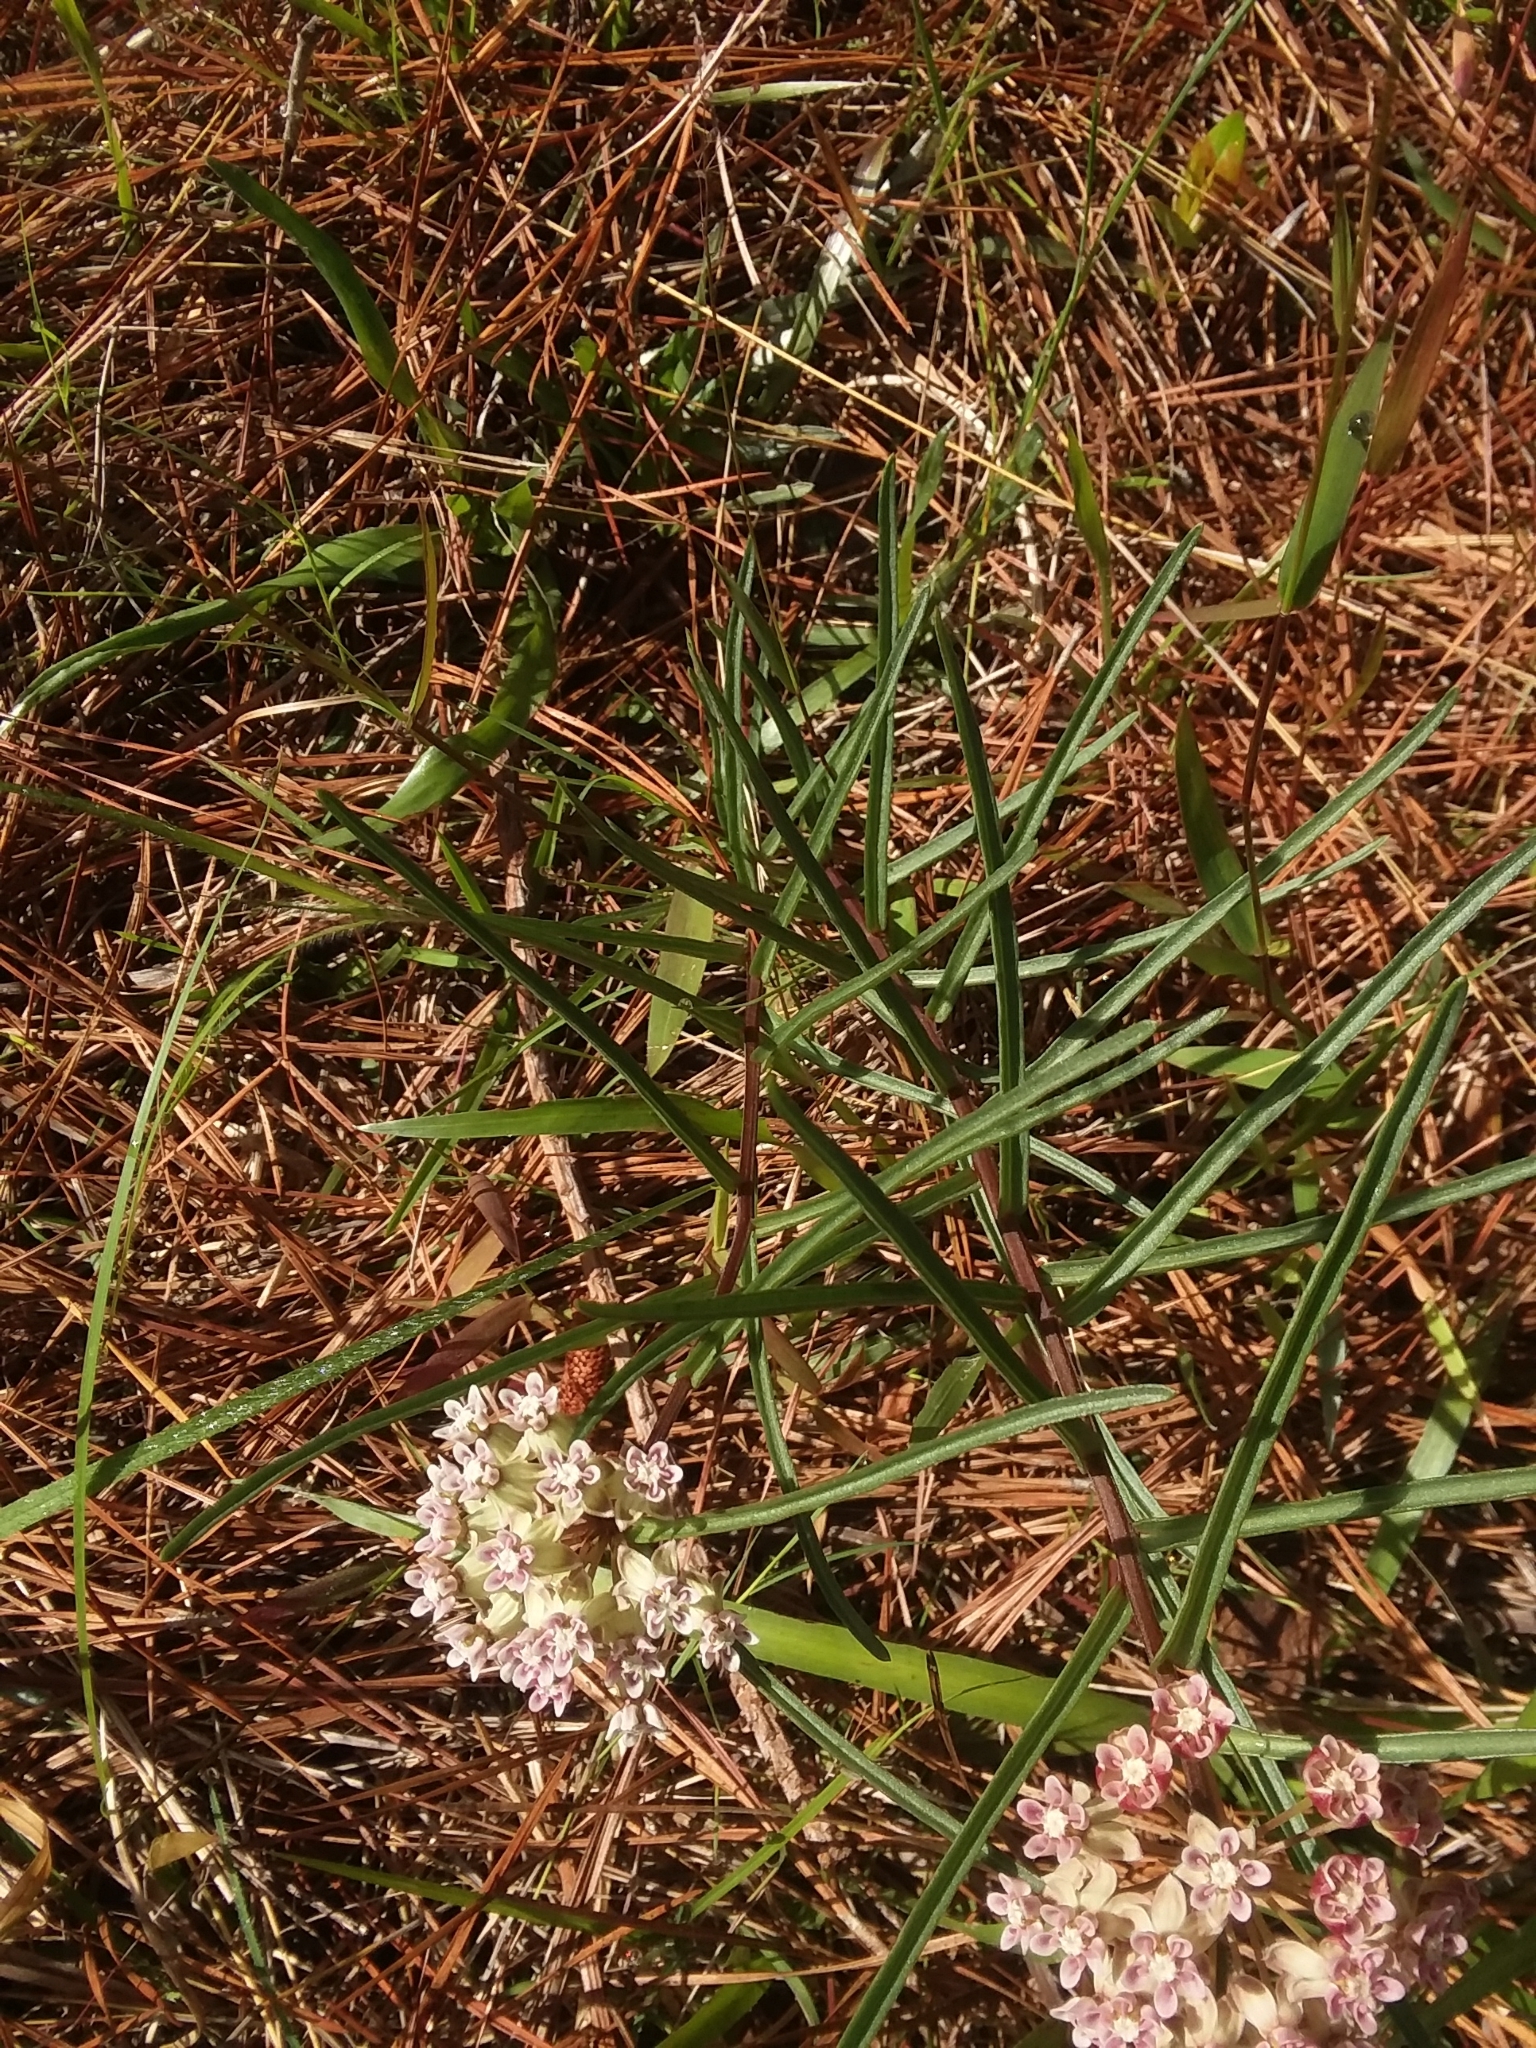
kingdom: Plantae
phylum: Tracheophyta
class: Magnoliopsida
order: Gentianales
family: Apocynaceae
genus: Asclepias
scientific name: Asclepias michauxii
